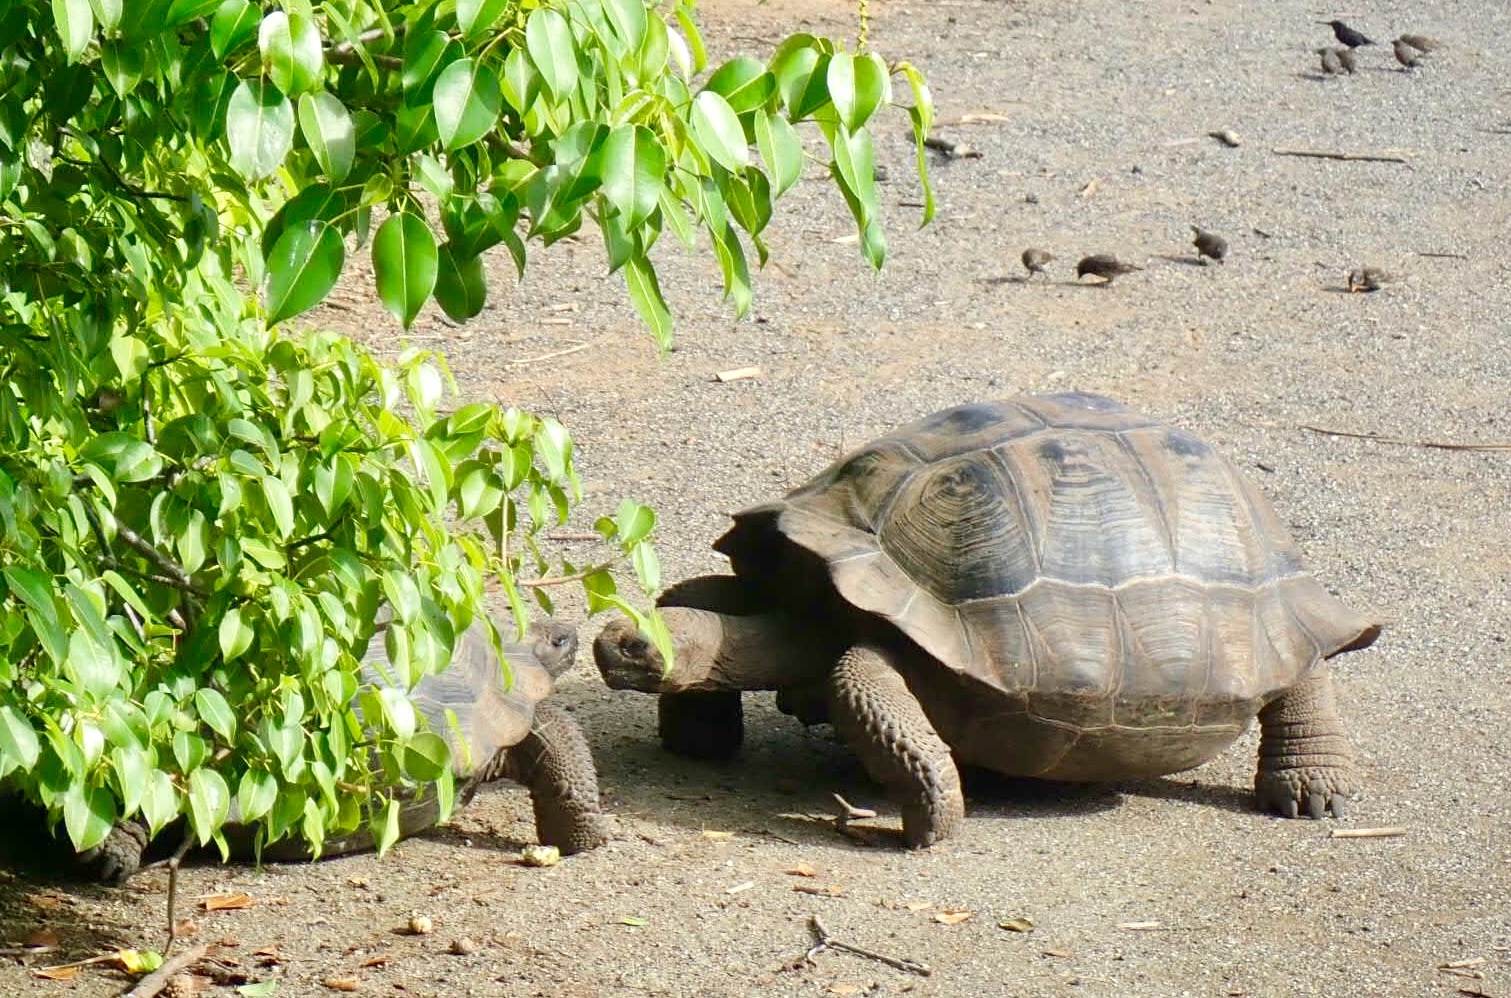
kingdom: Animalia
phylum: Chordata
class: Testudines
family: Testudinidae
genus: Chelonoidis
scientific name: Chelonoidis vandenburghi
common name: Alcedo volcano giant tortoise
